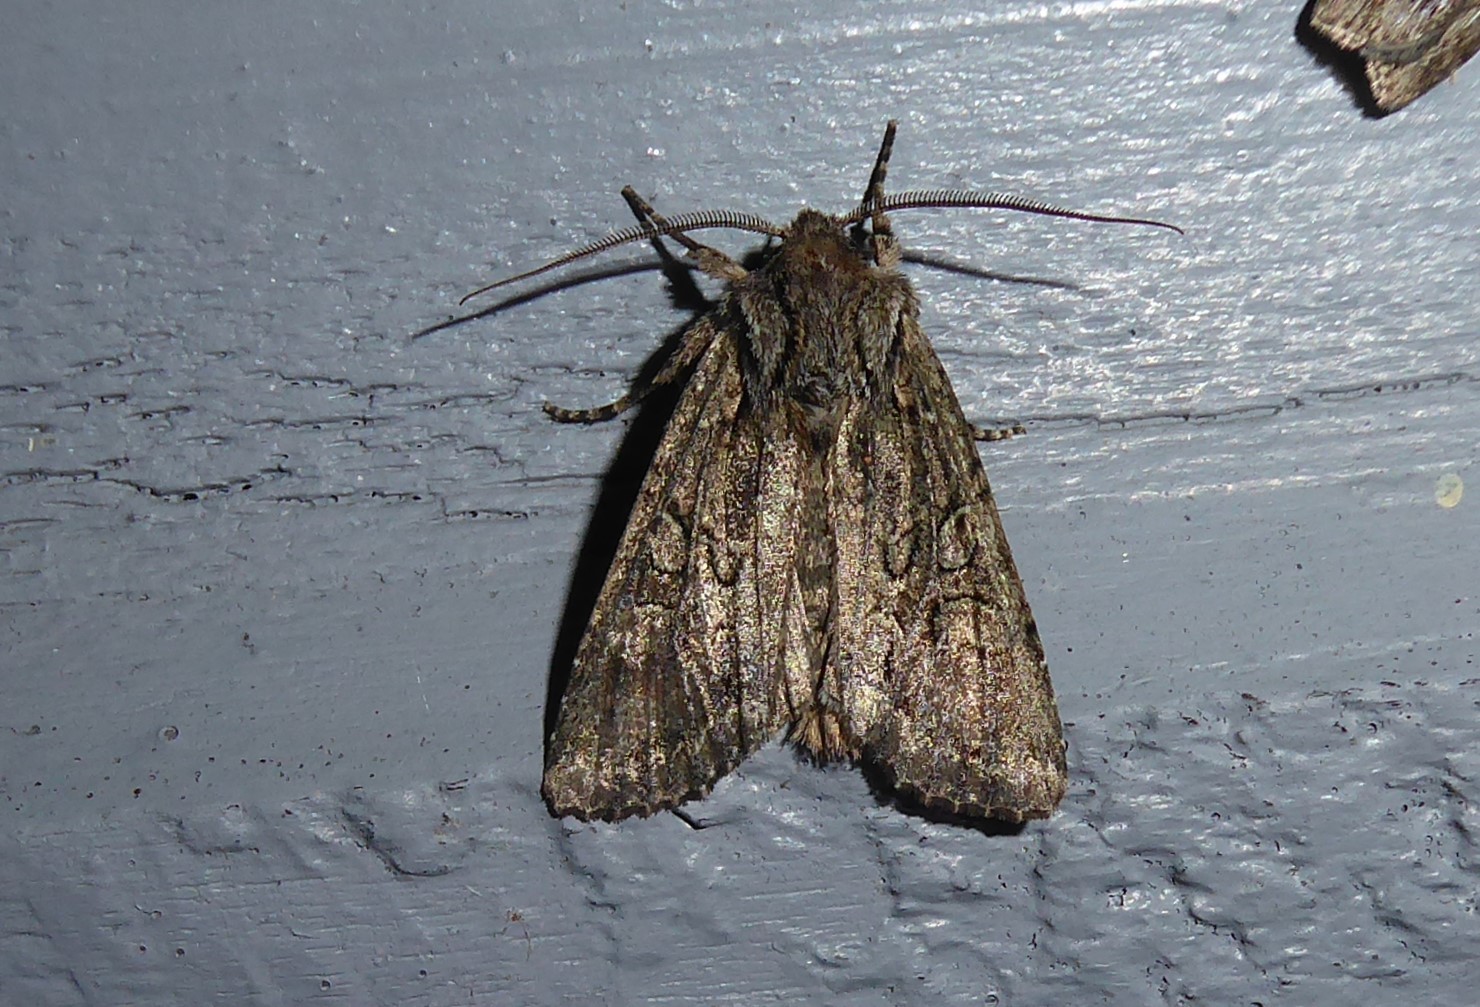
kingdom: Animalia
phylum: Arthropoda
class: Insecta
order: Lepidoptera
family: Noctuidae
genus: Ichneutica
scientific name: Ichneutica mutans
